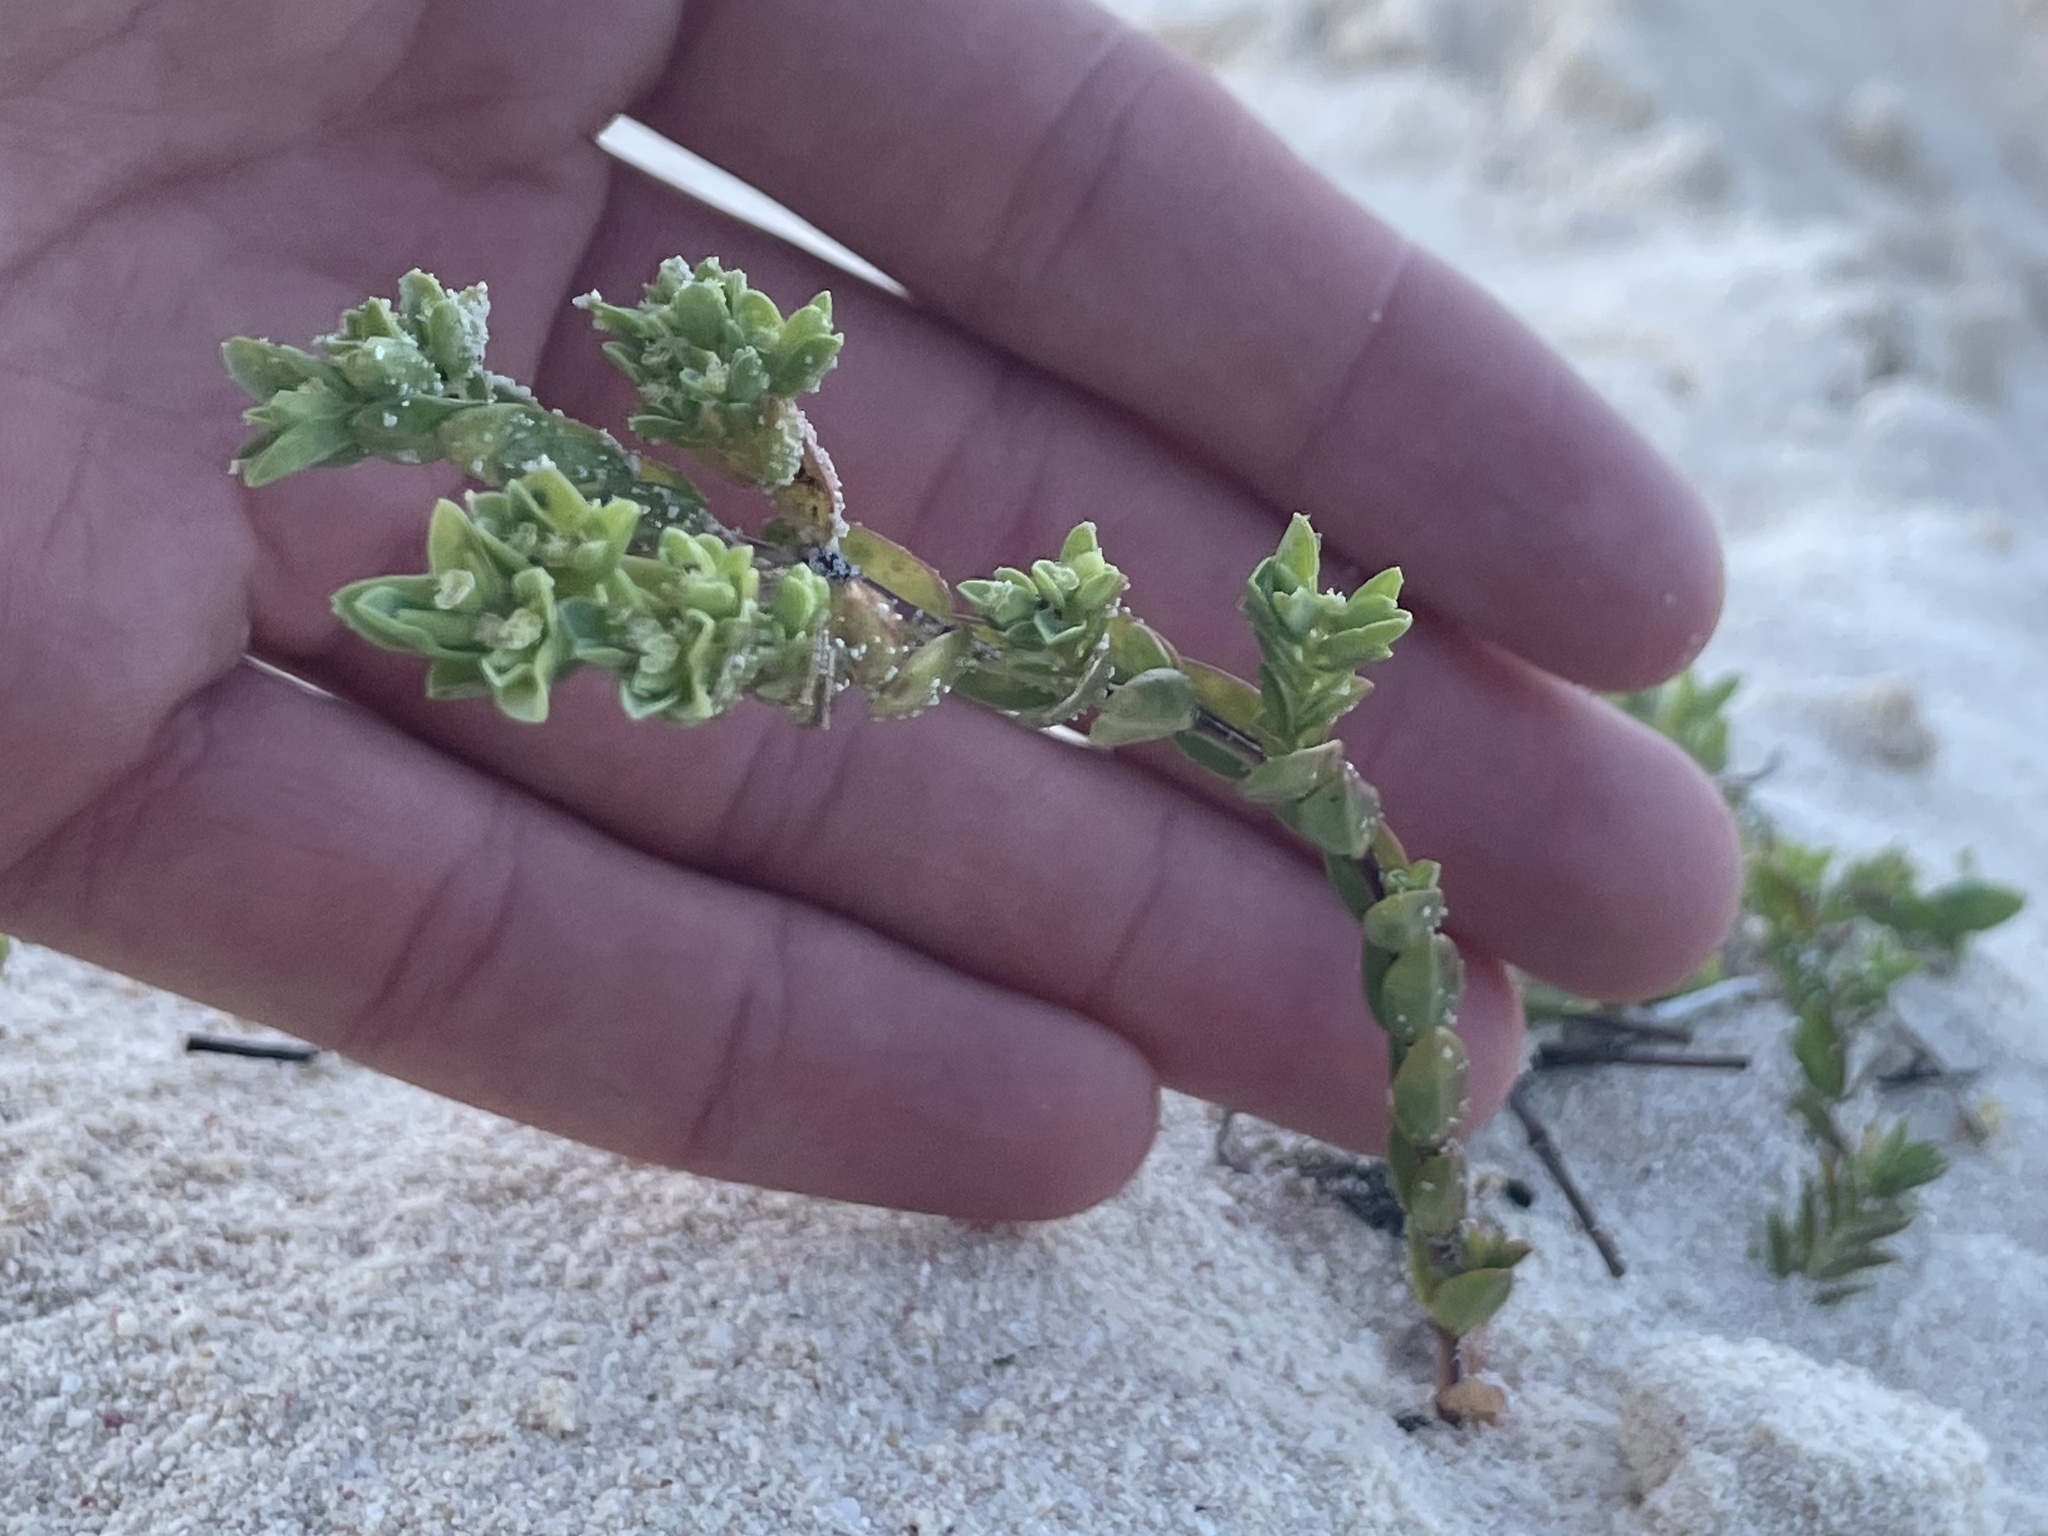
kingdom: Plantae
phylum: Tracheophyta
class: Magnoliopsida
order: Malpighiales
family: Euphorbiaceae
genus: Euphorbia
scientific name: Euphorbia mesembryanthemifolia
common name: Coastal beach sandmat
